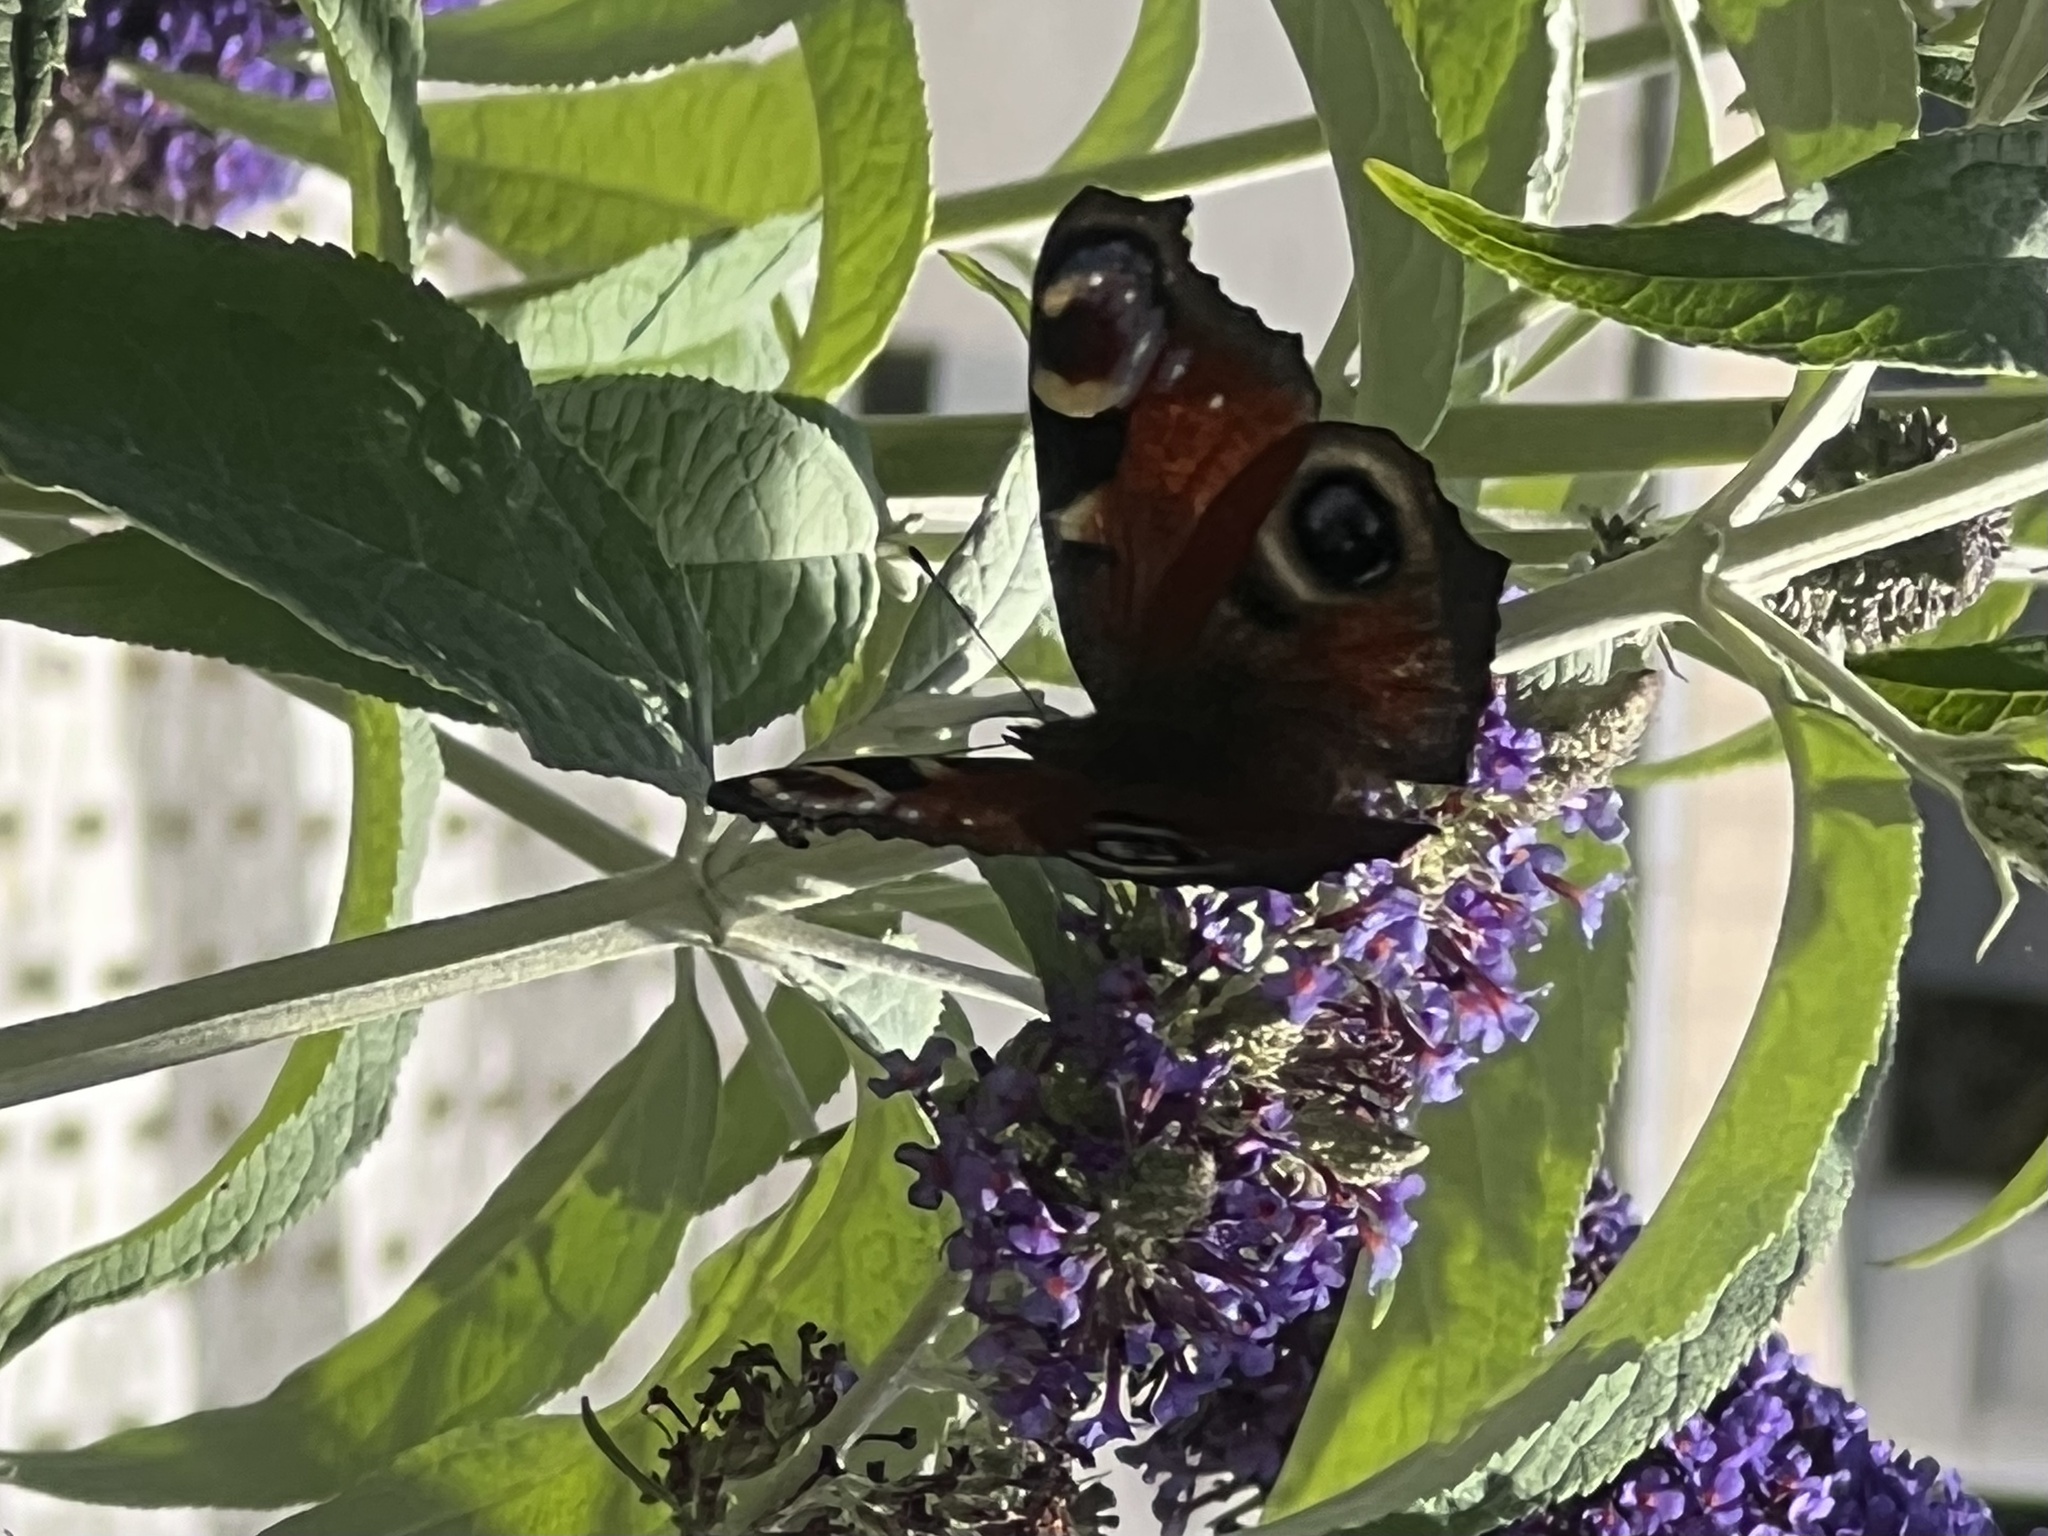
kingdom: Animalia
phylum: Arthropoda
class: Insecta
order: Lepidoptera
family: Nymphalidae
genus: Aglais
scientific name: Aglais io
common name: Peacock
